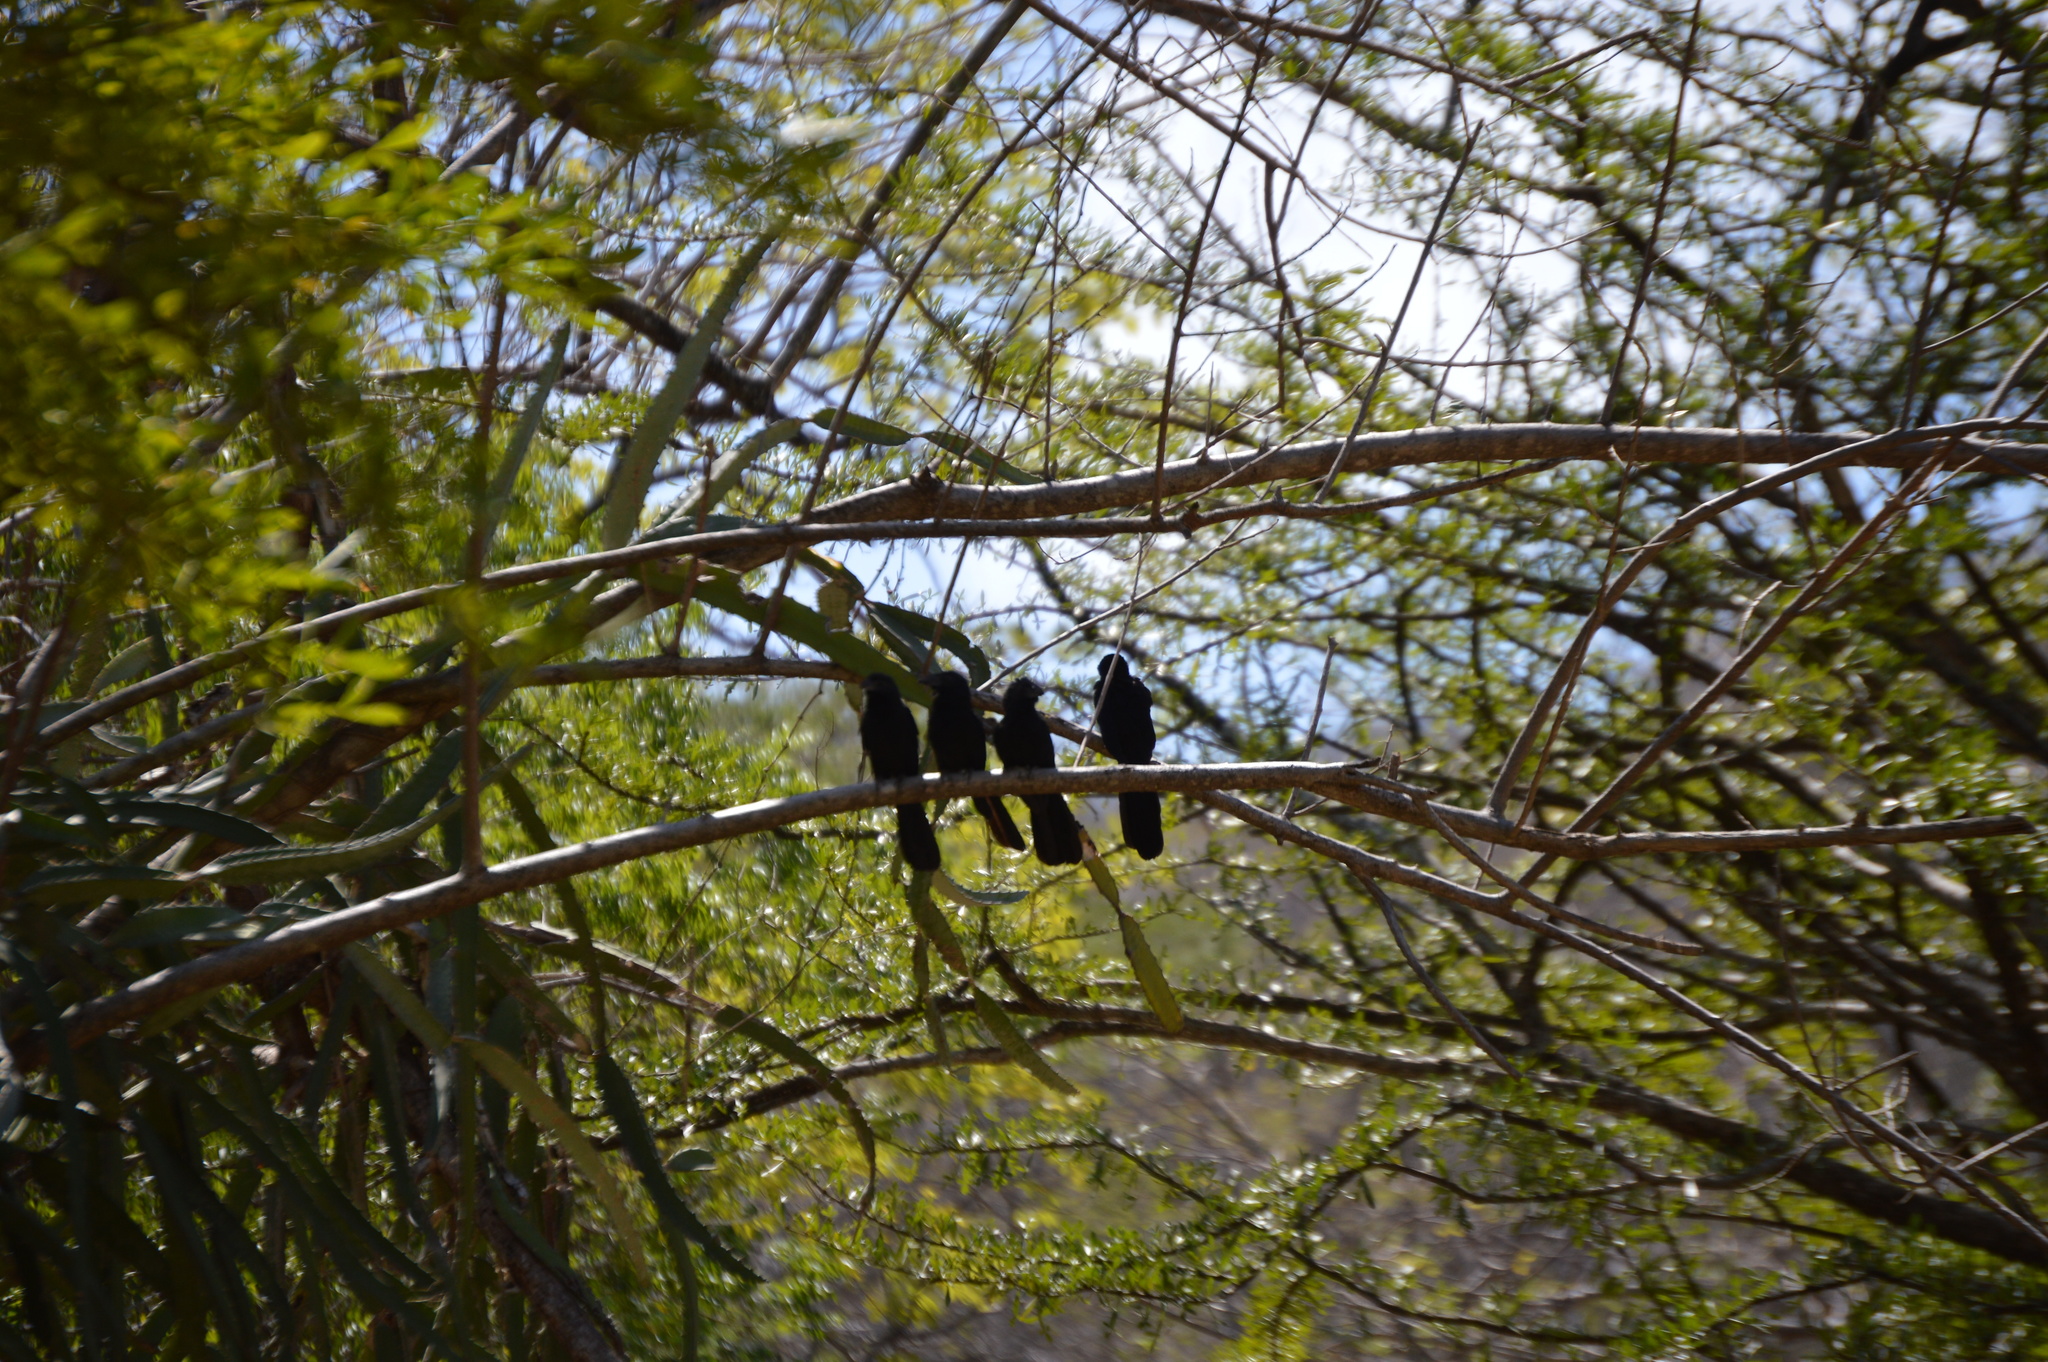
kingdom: Animalia
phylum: Chordata
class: Aves
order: Cuculiformes
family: Cuculidae
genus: Crotophaga
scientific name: Crotophaga sulcirostris
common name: Groove-billed ani
